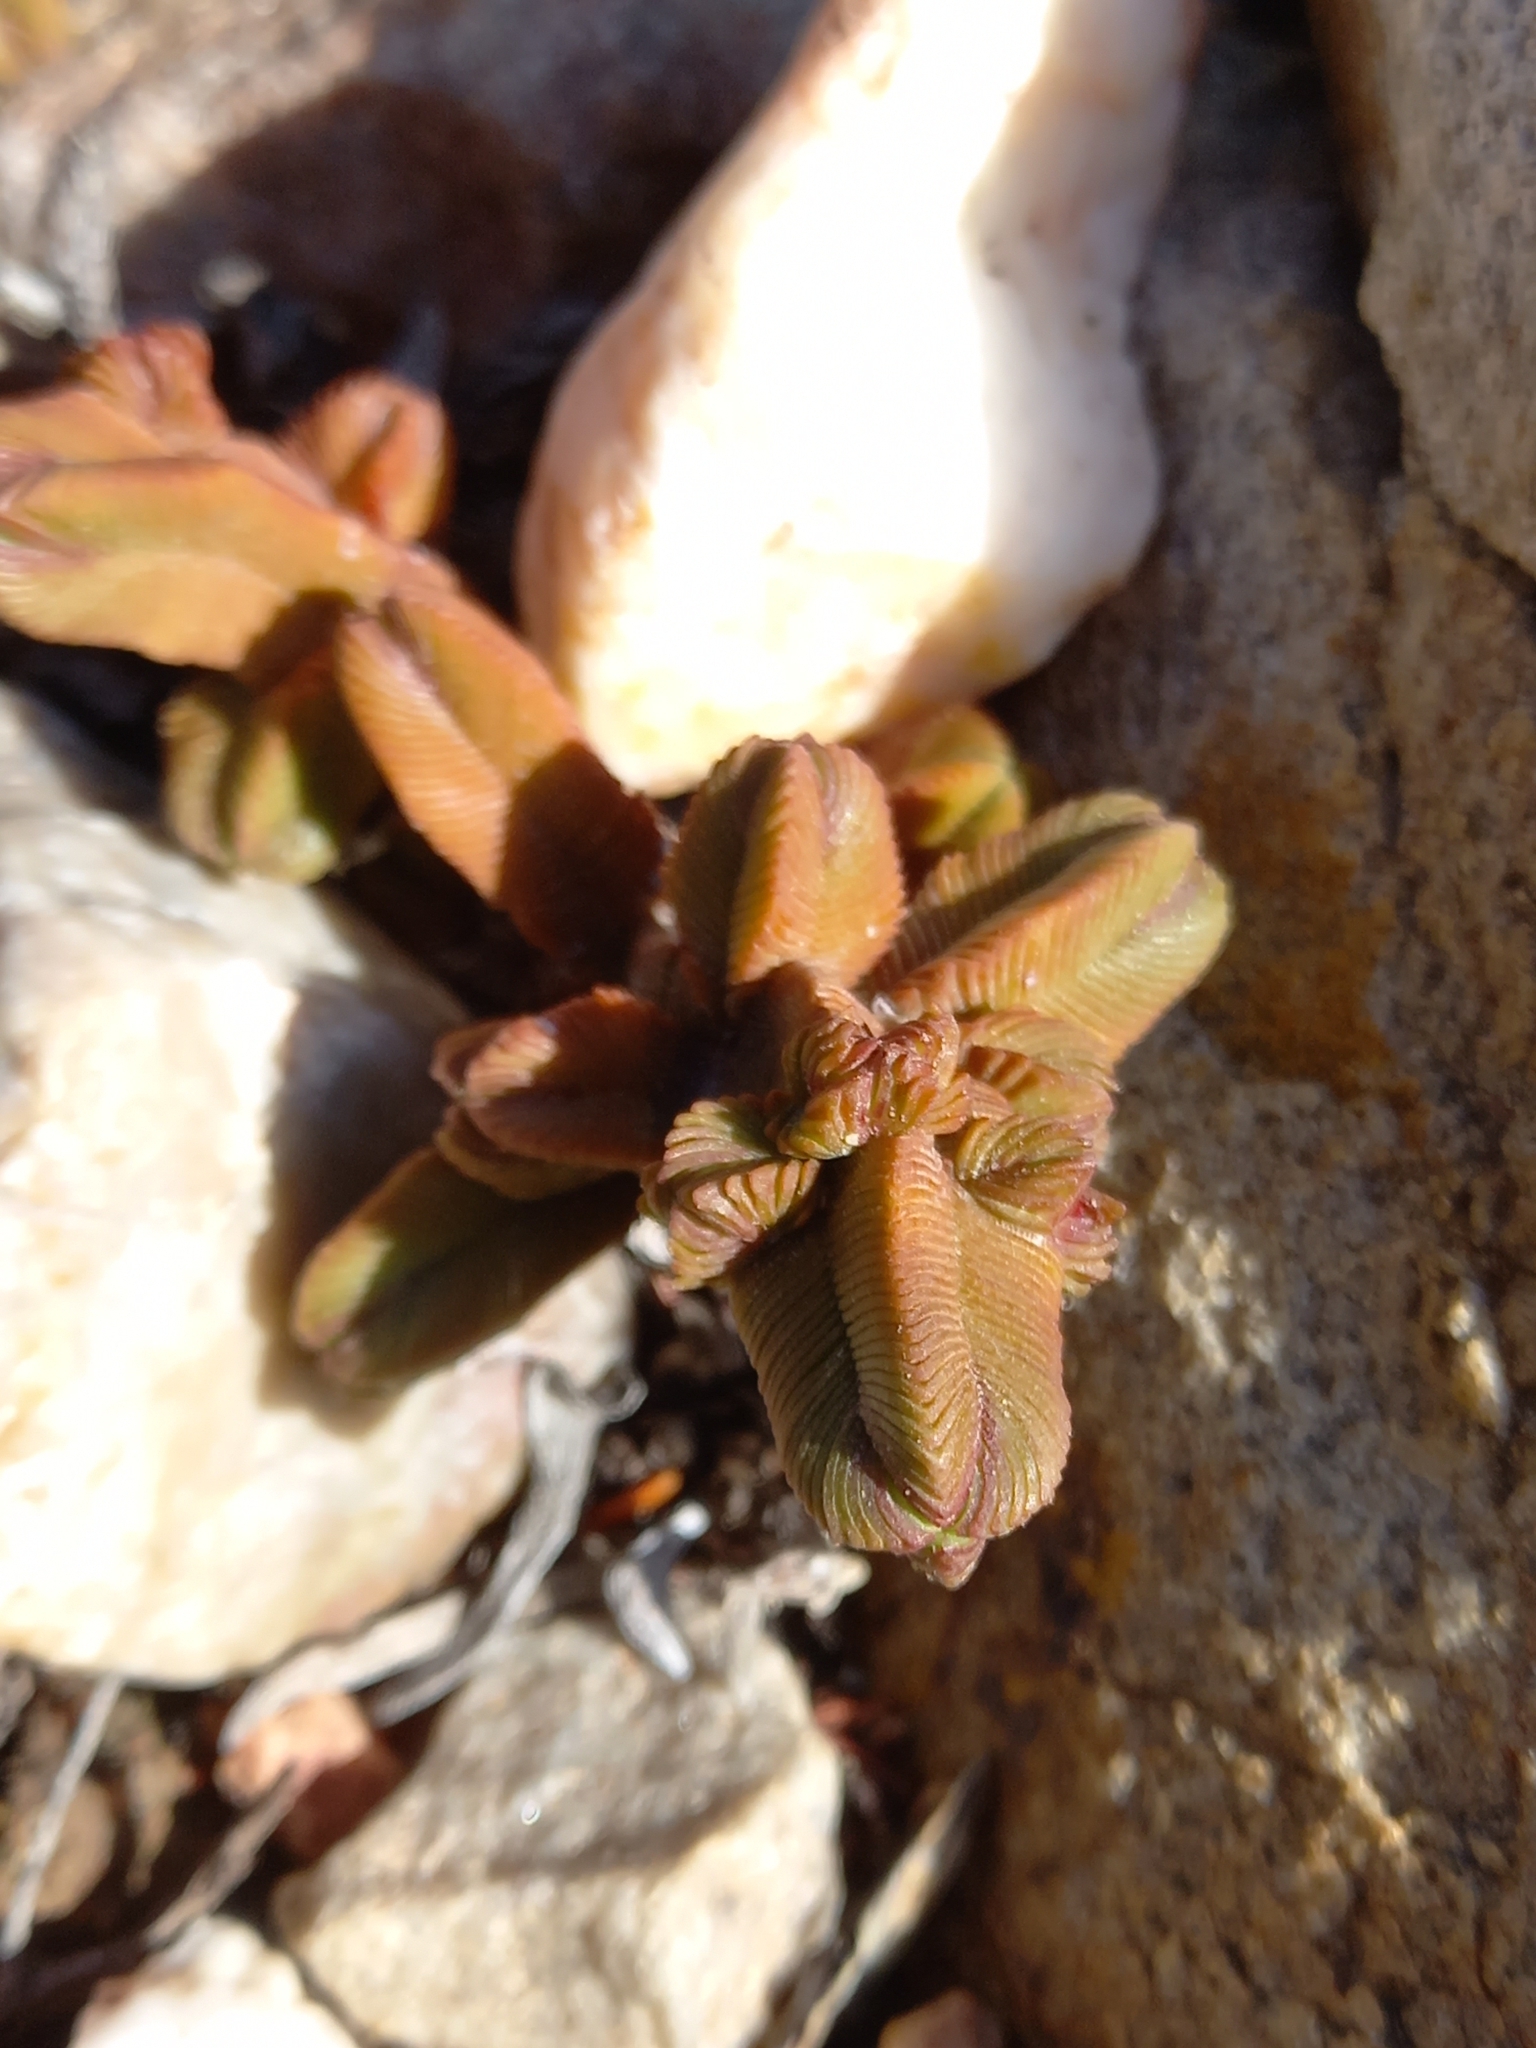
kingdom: Plantae
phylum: Tracheophyta
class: Magnoliopsida
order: Saxifragales
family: Crassulaceae
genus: Crassula
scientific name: Crassula pyramidalis
